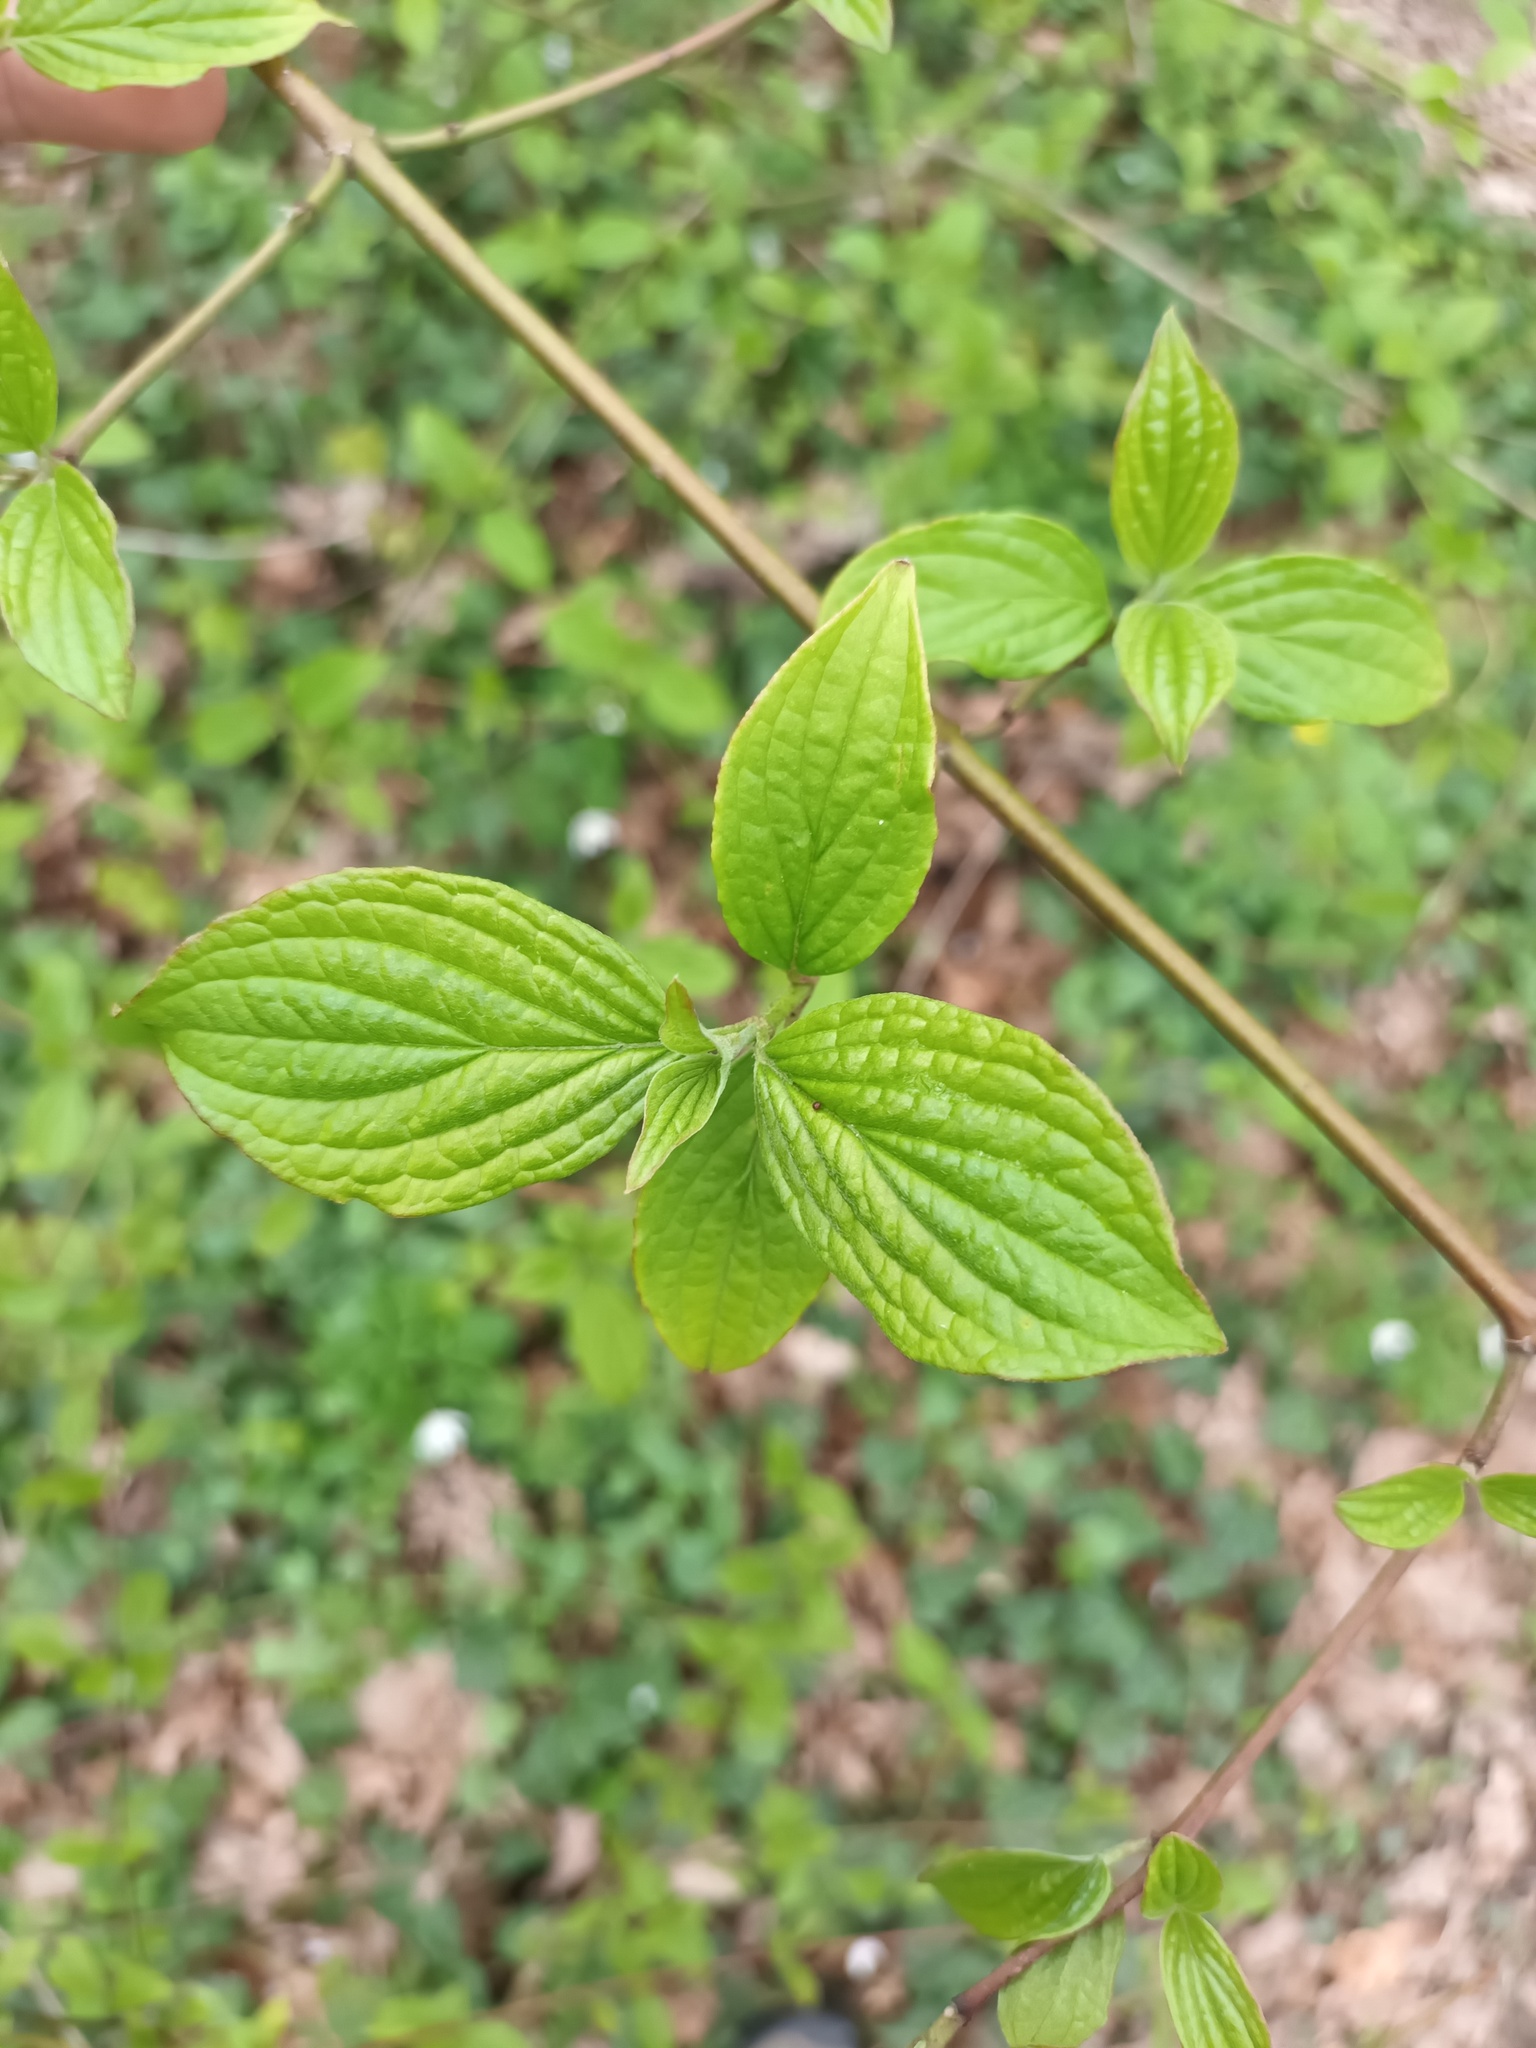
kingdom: Plantae
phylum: Tracheophyta
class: Magnoliopsida
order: Cornales
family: Cornaceae
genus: Cornus
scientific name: Cornus sanguinea
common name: Dogwood
